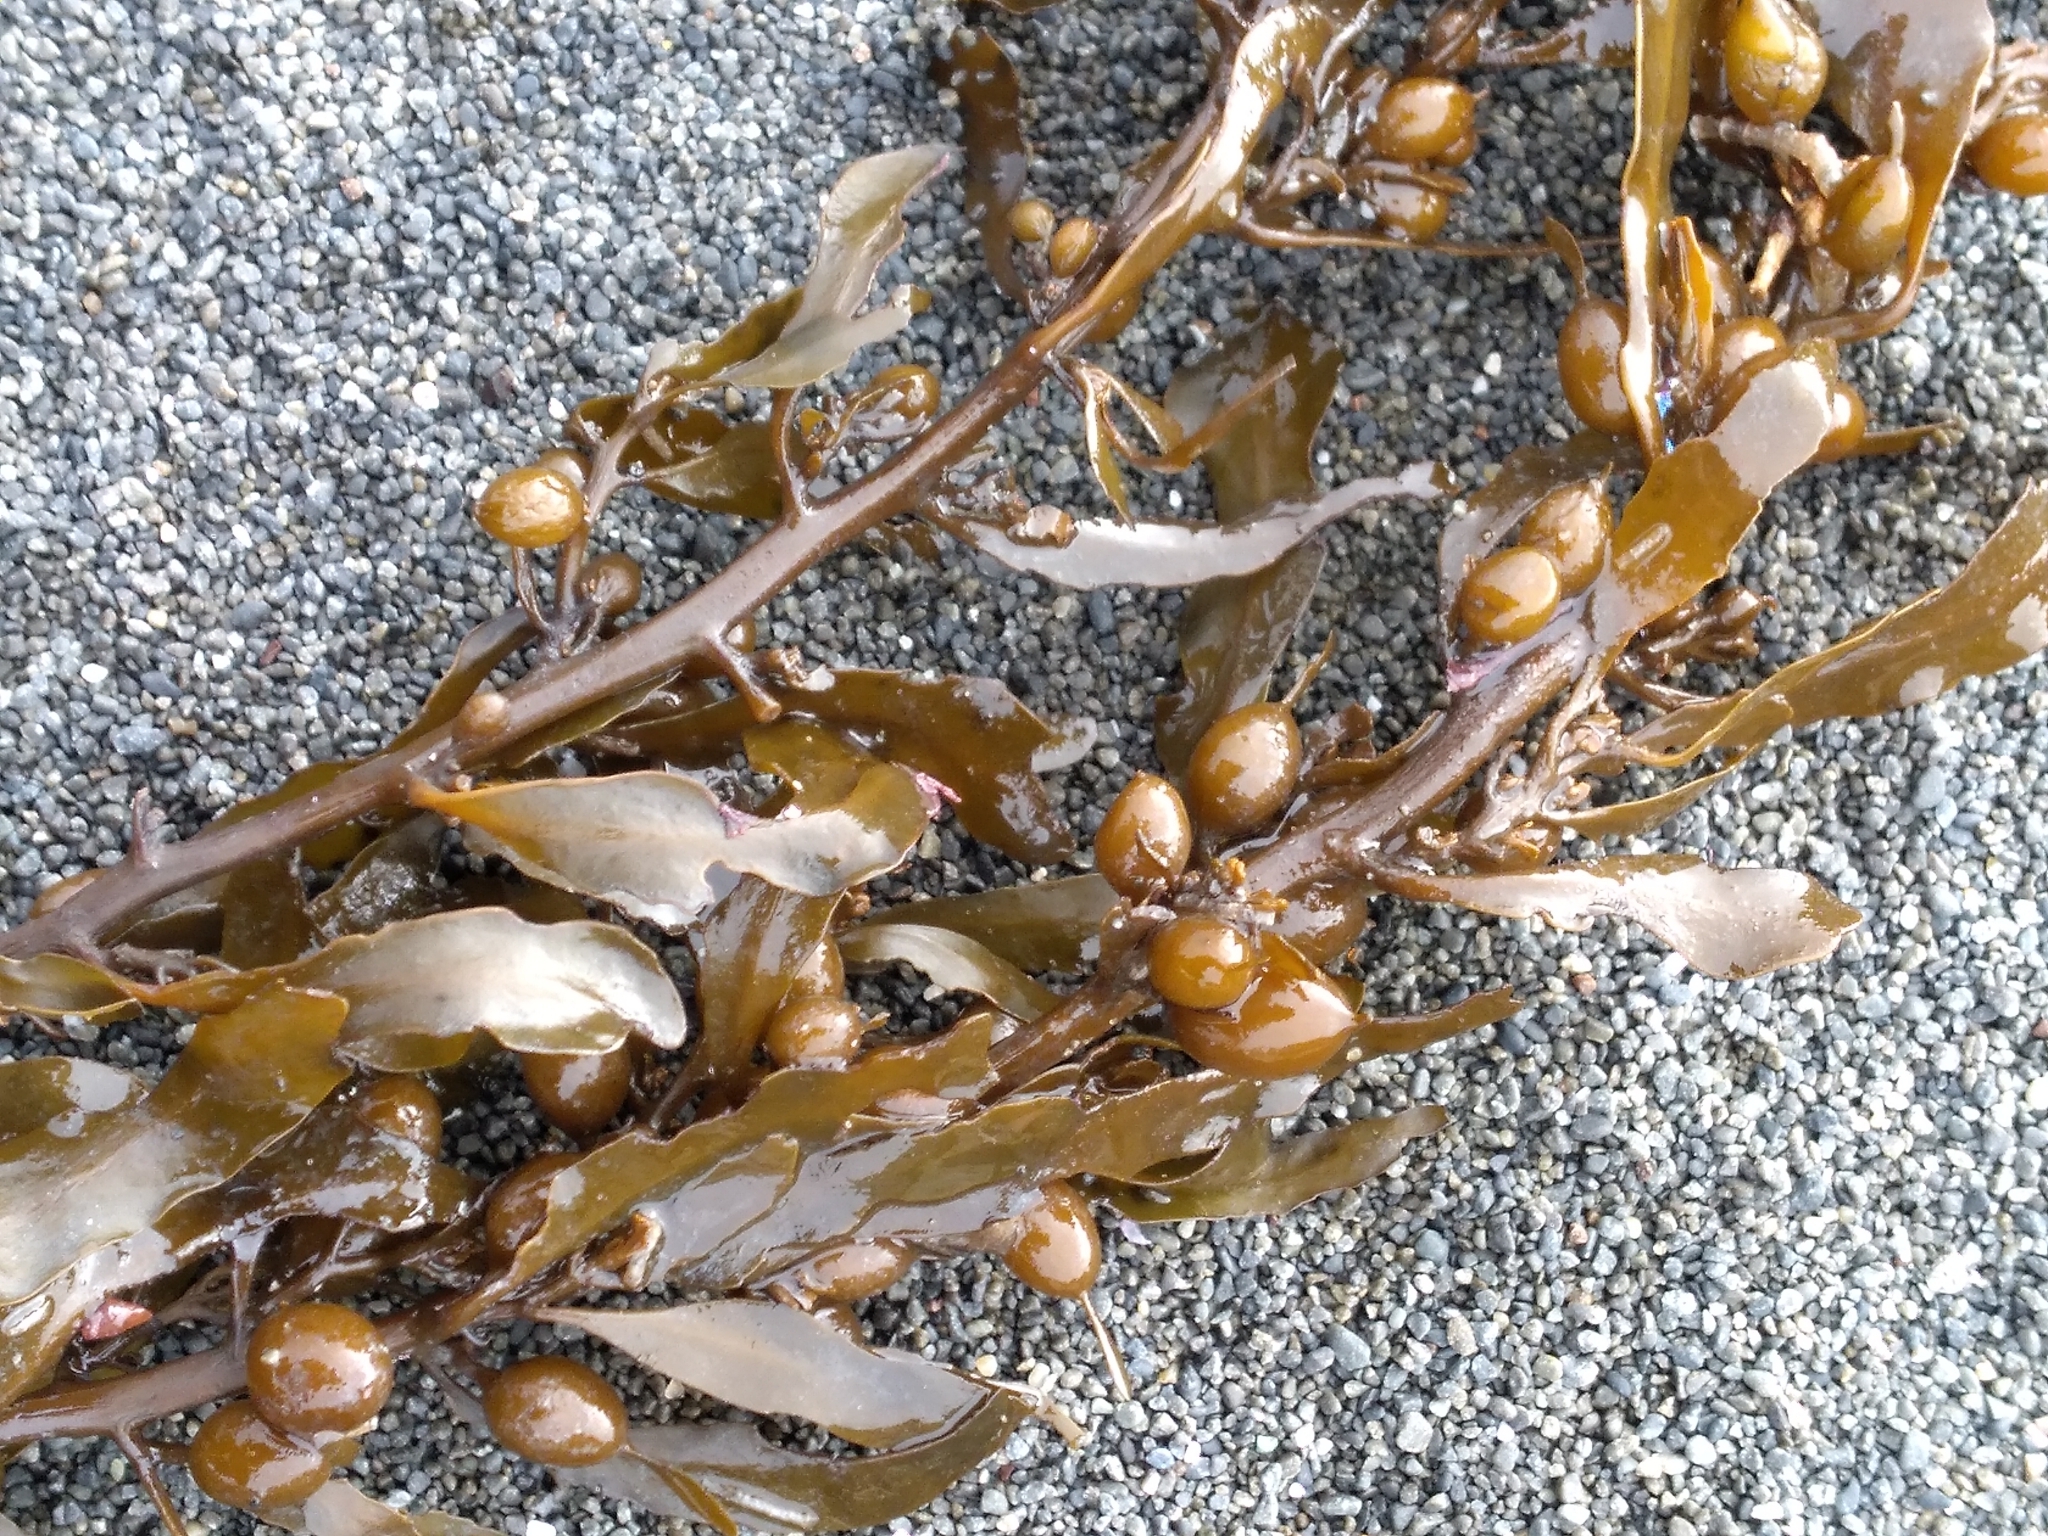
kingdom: Chromista
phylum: Ochrophyta
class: Phaeophyceae
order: Fucales
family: Sargassaceae
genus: Sargassum
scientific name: Sargassum sinclairii
